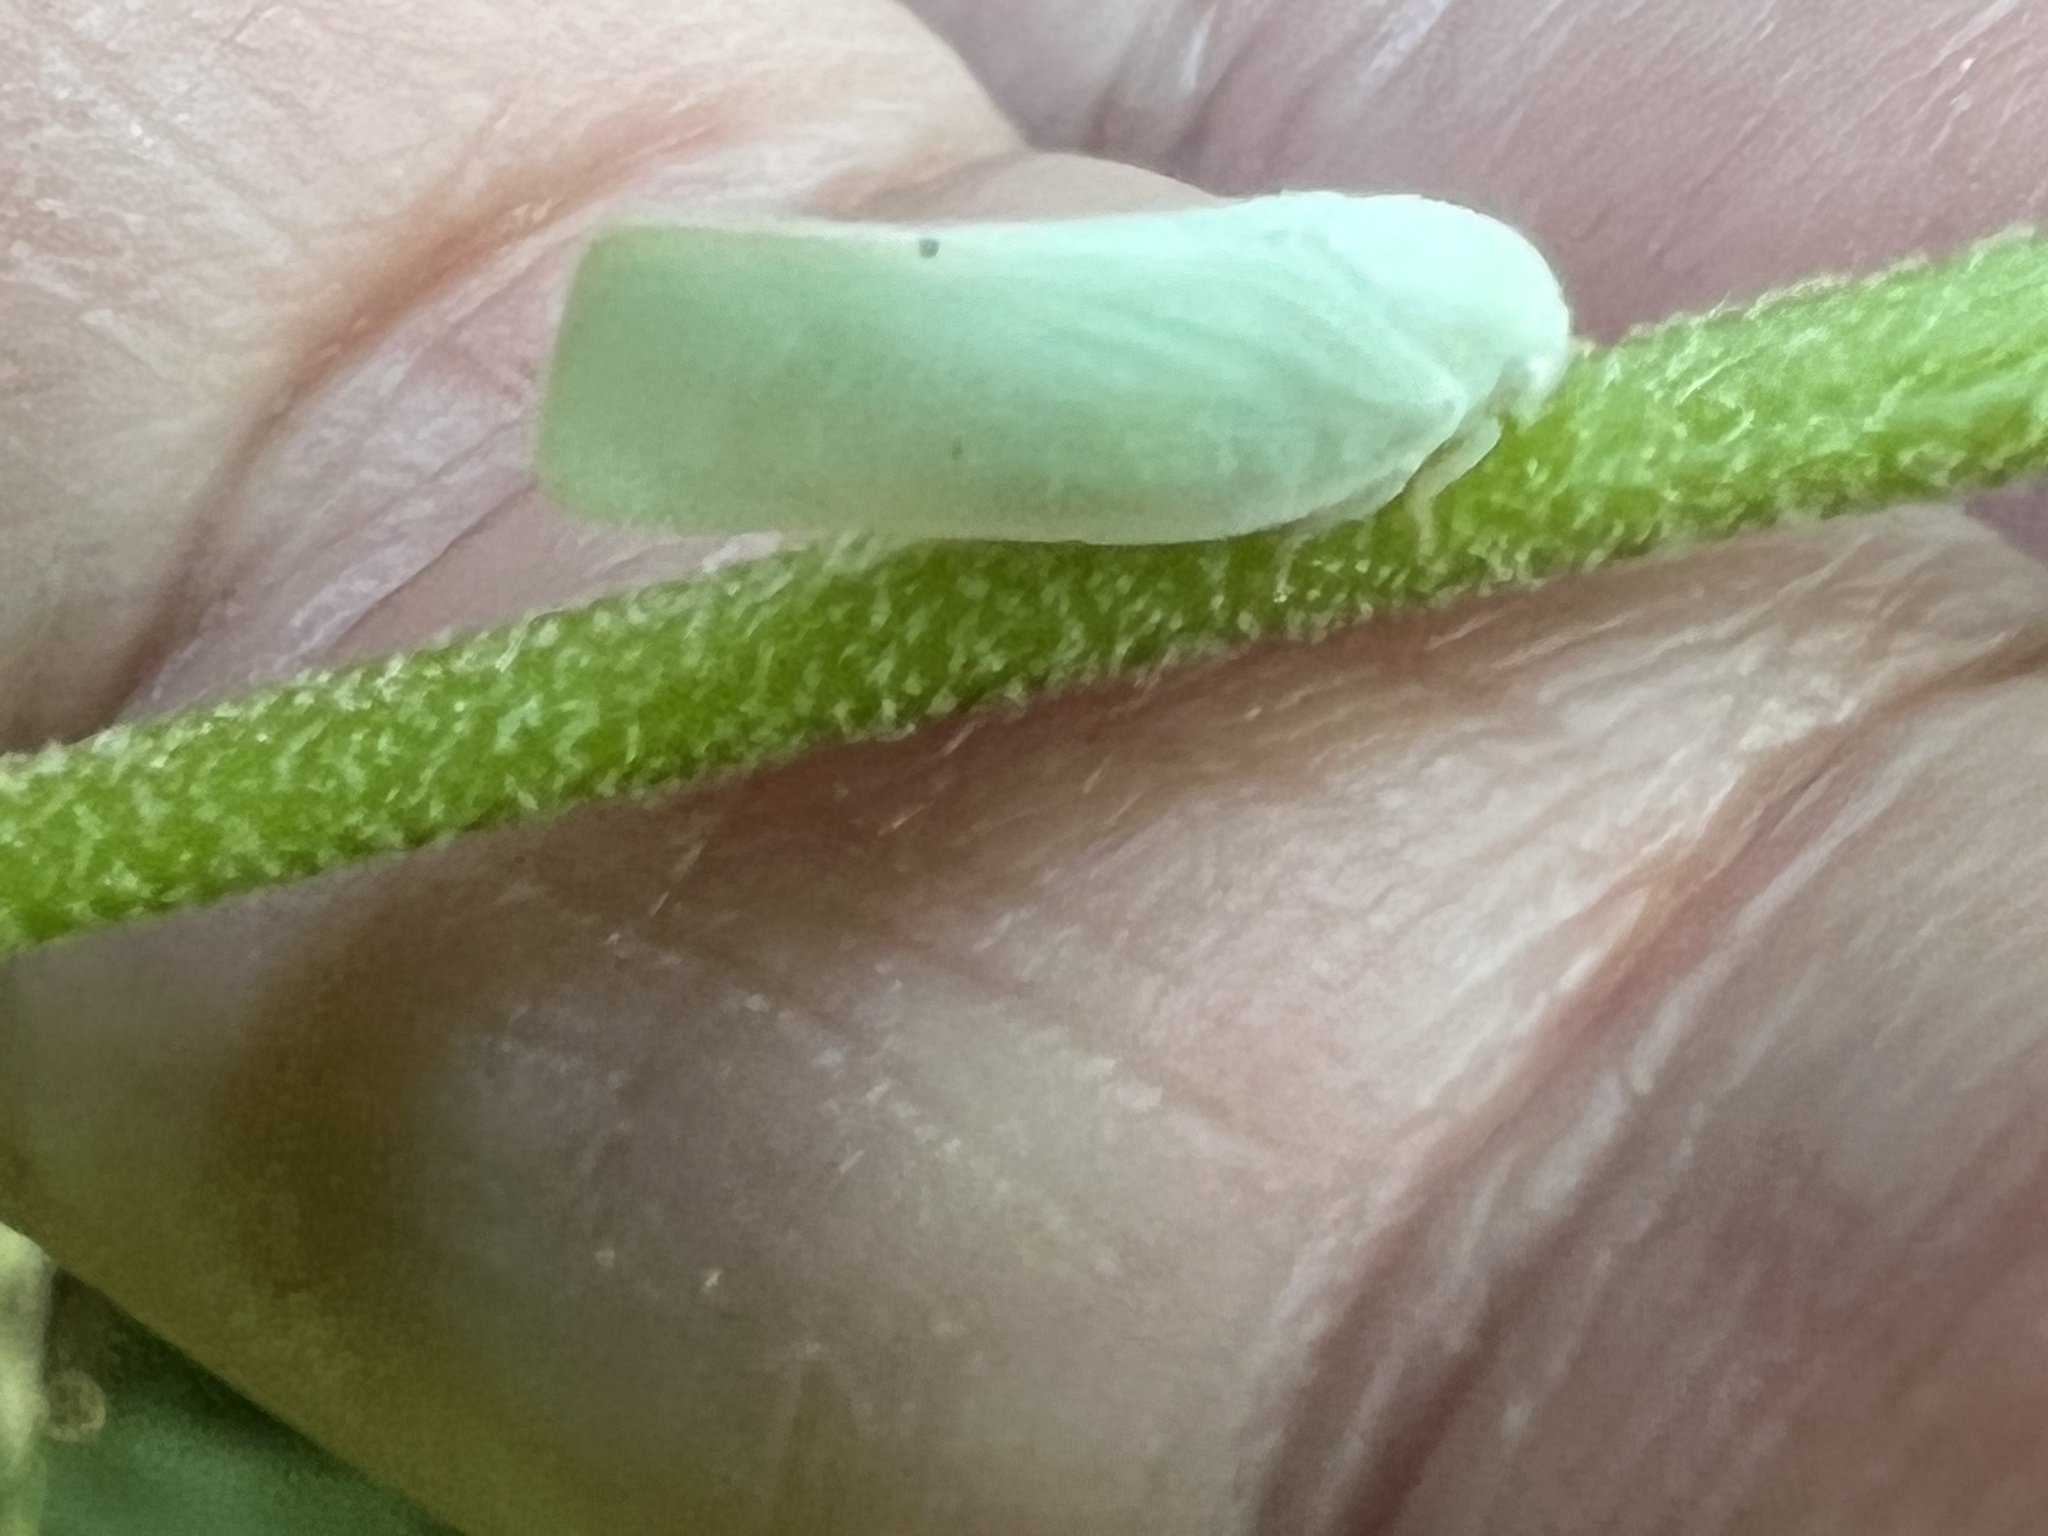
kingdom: Animalia
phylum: Arthropoda
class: Insecta
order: Hemiptera
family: Flatidae
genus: Flatormenis
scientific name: Flatormenis proxima
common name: Northern flatid planthopper
